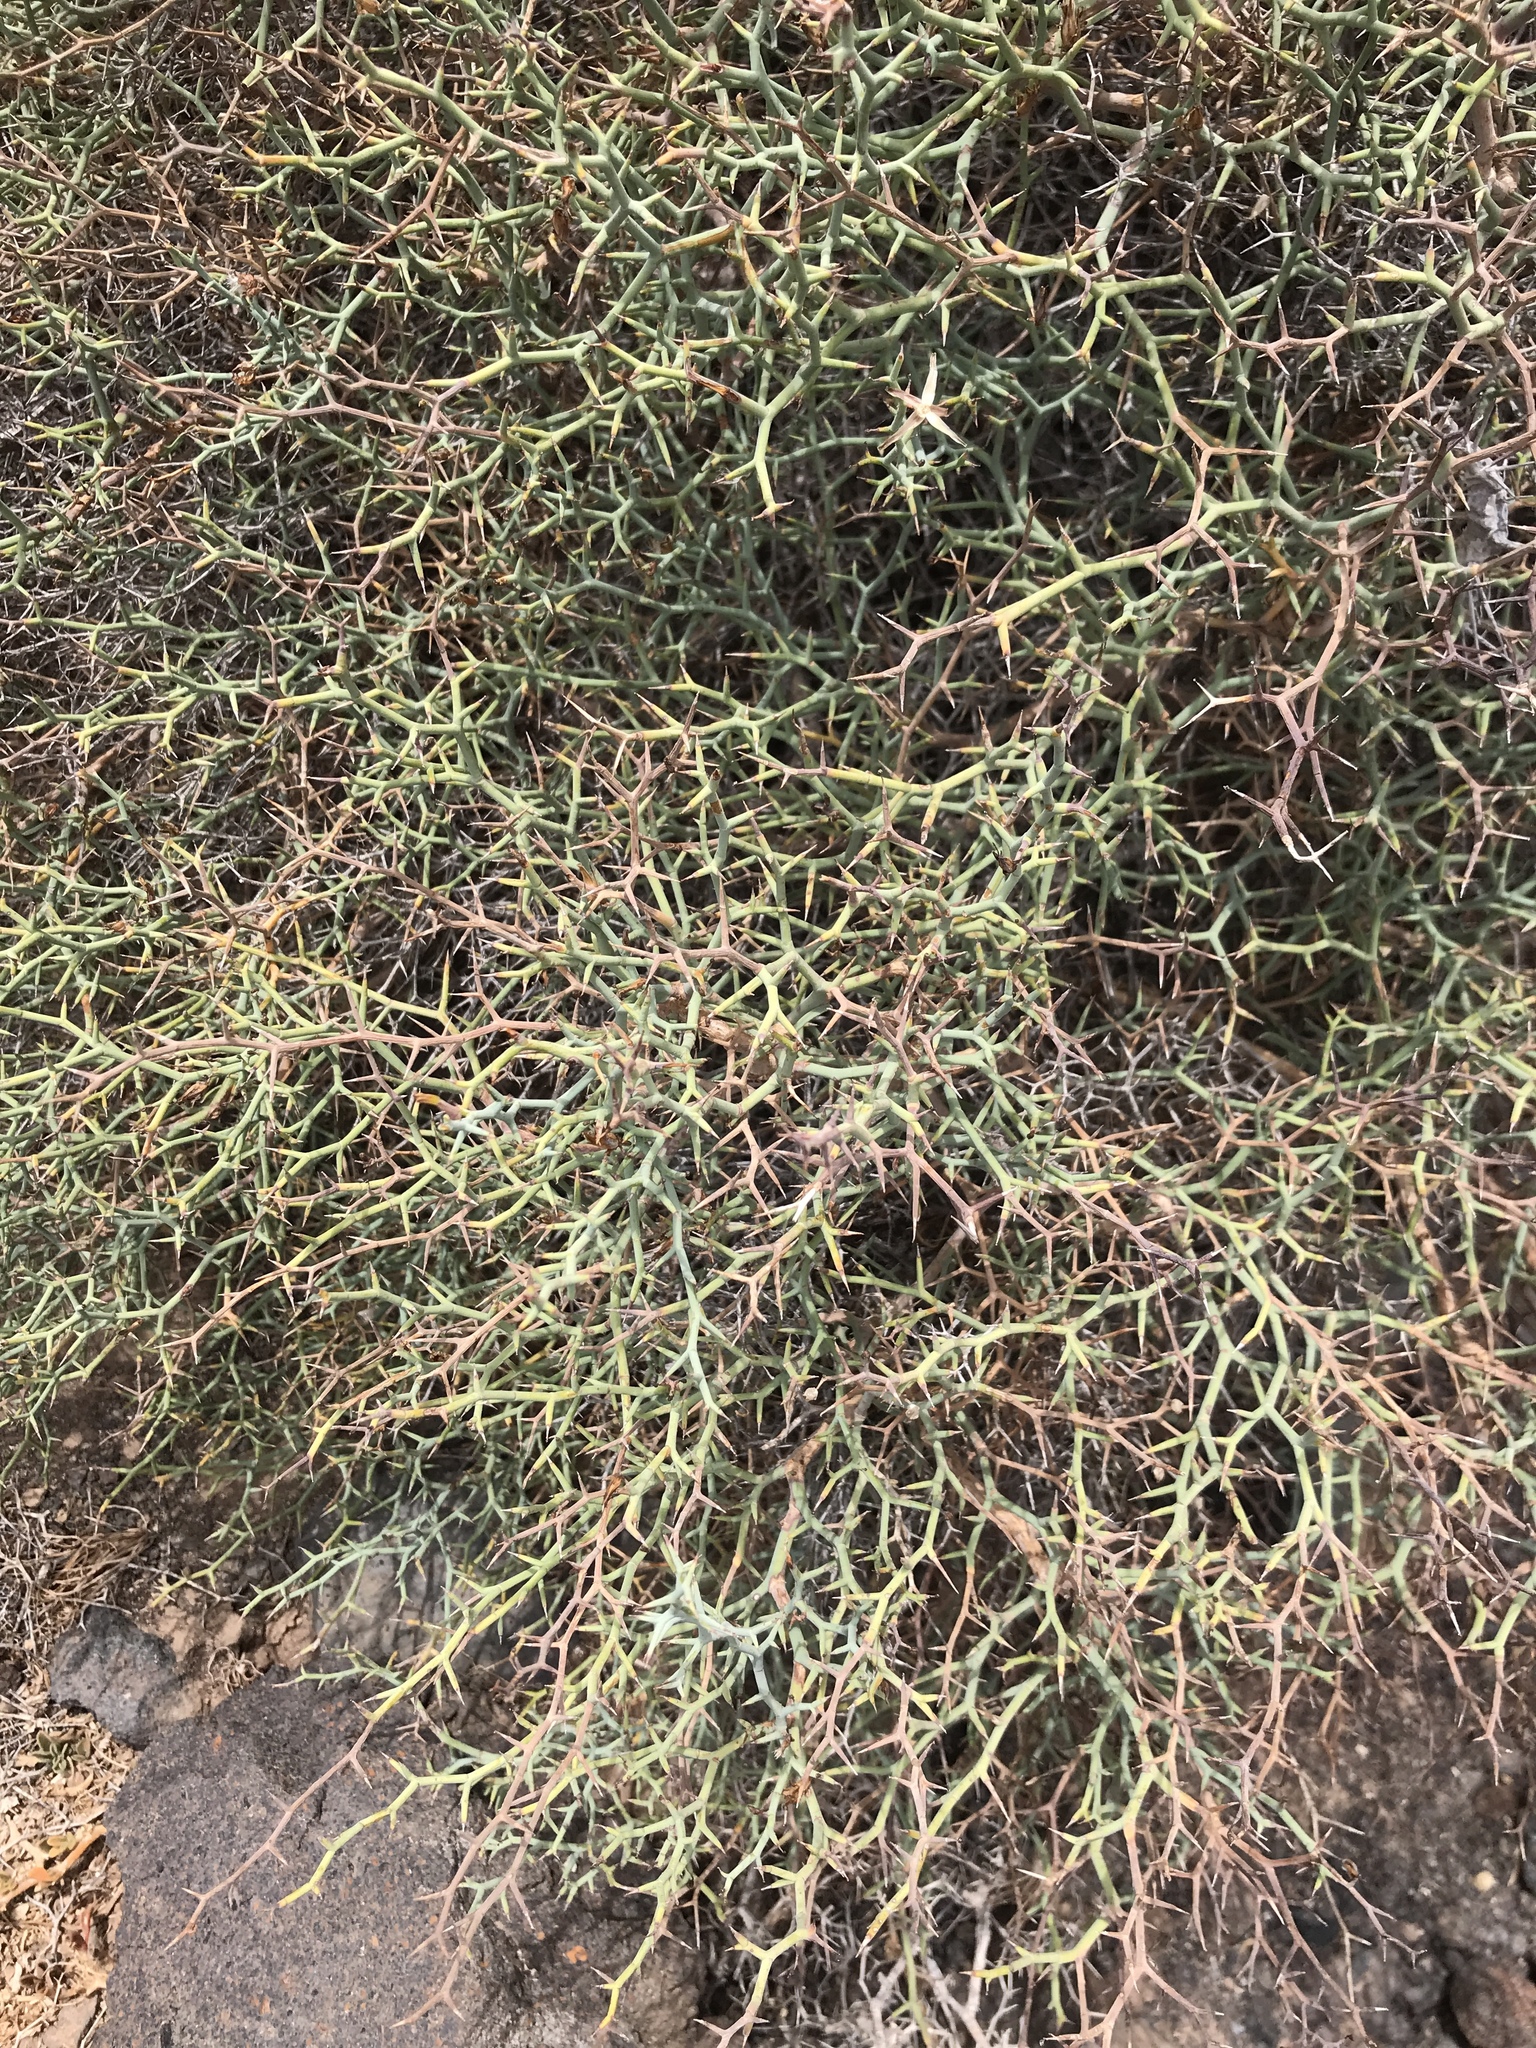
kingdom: Plantae
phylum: Tracheophyta
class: Magnoliopsida
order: Asterales
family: Asteraceae
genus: Launaea
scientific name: Launaea arborescens
